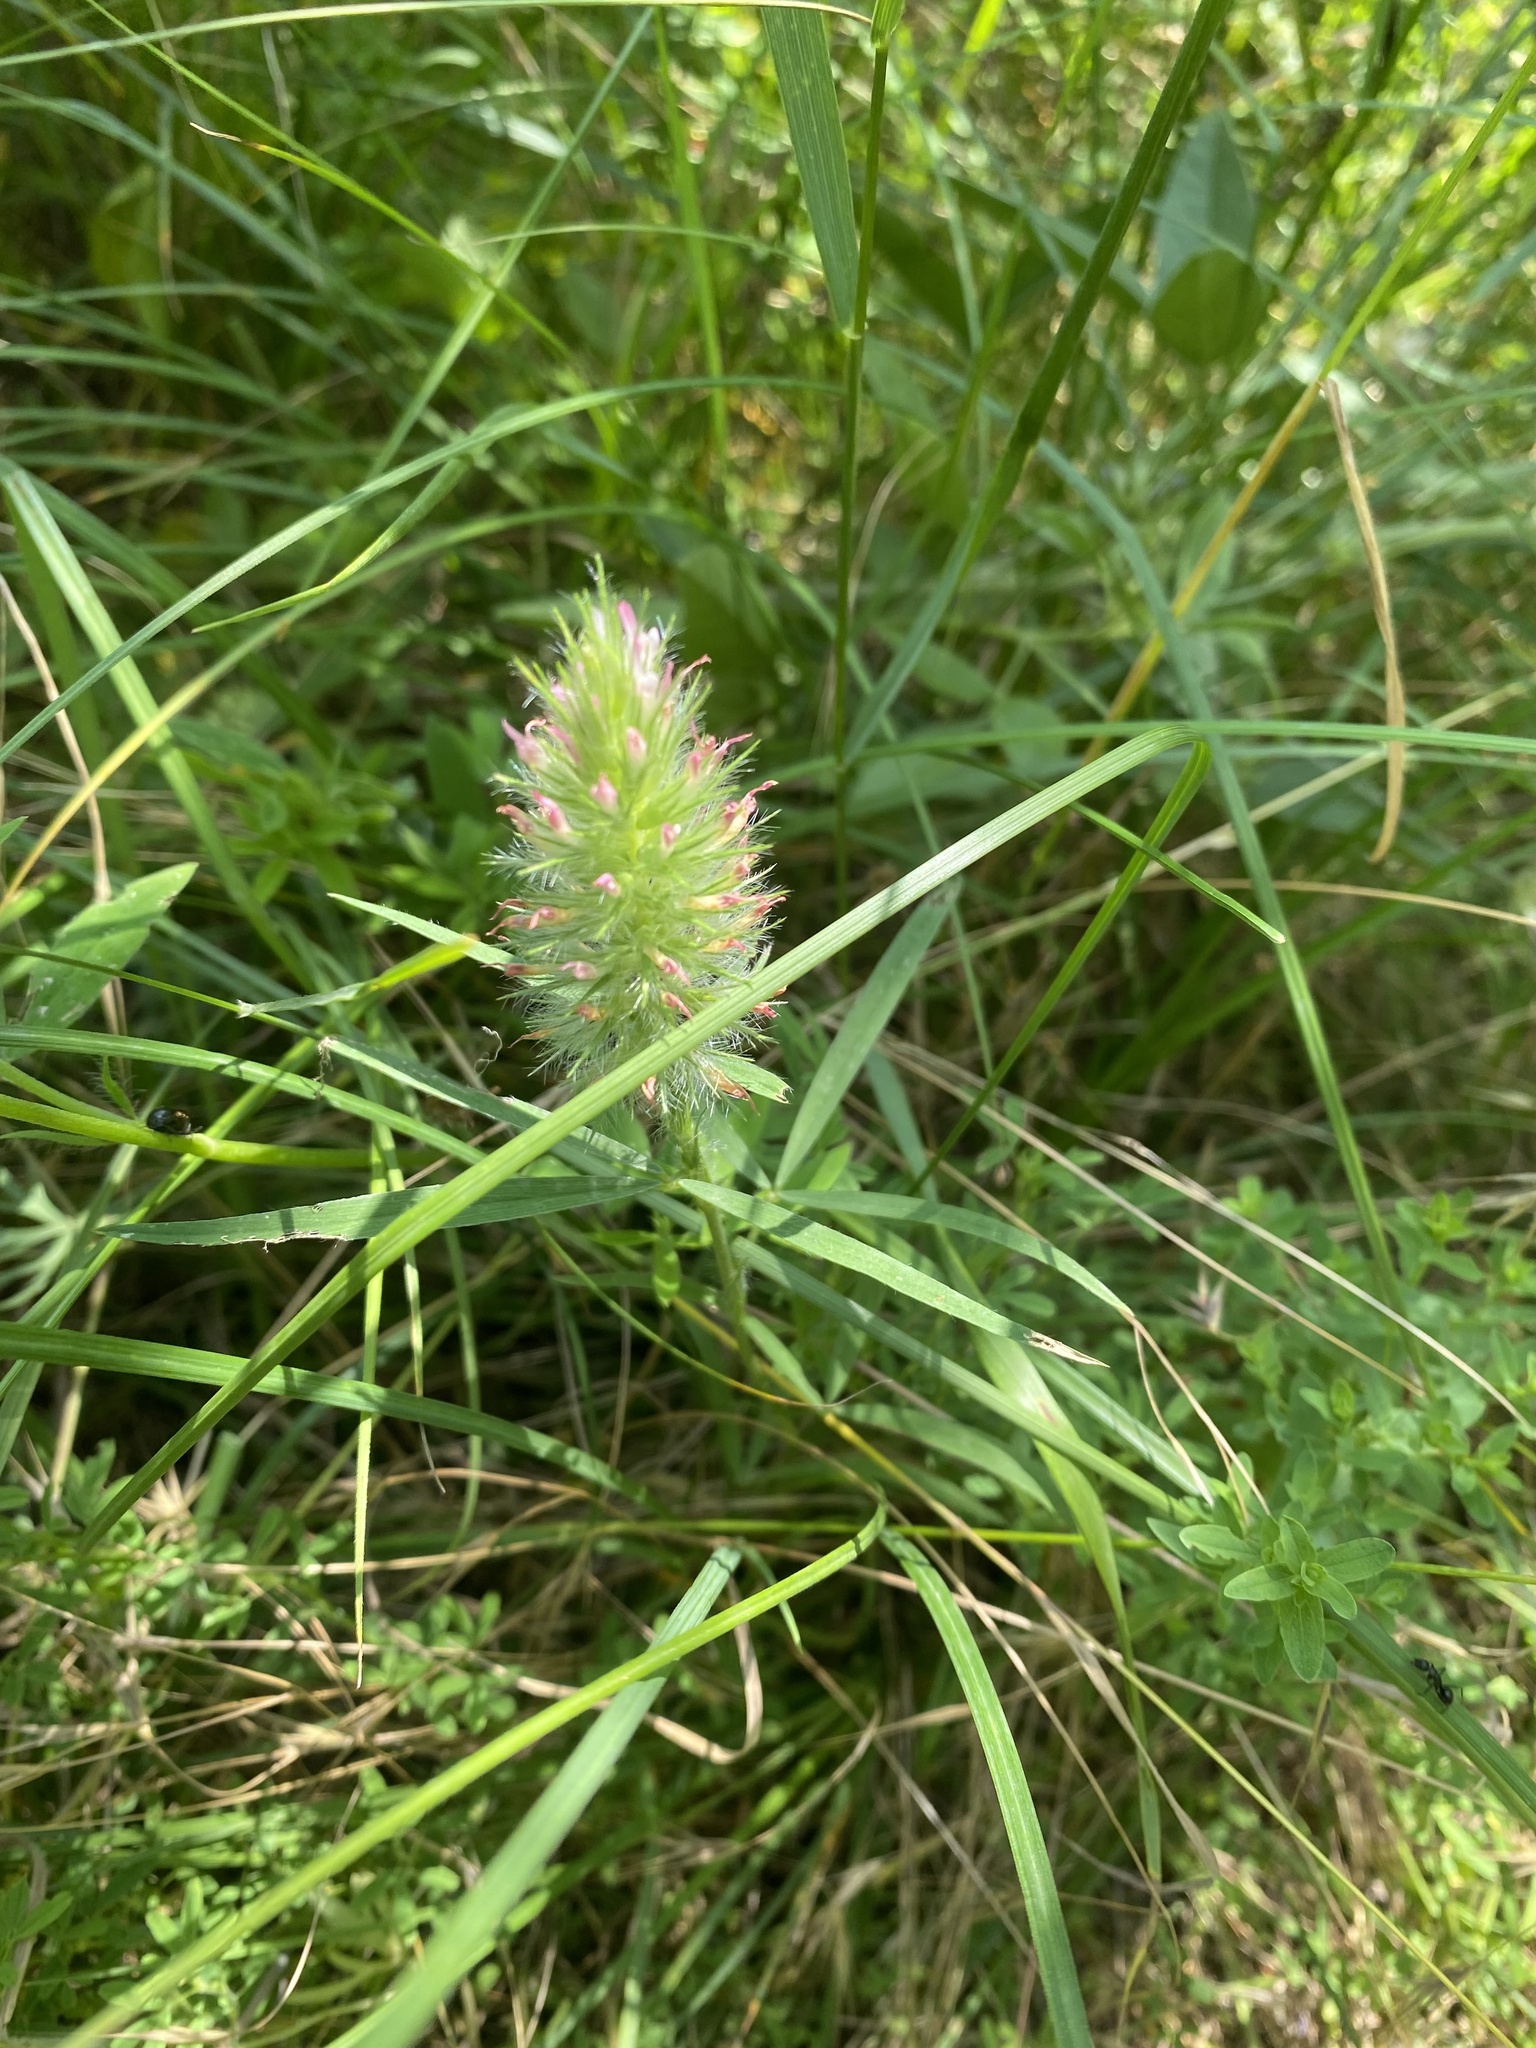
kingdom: Plantae
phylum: Tracheophyta
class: Magnoliopsida
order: Fabales
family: Fabaceae
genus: Trifolium
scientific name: Trifolium angustifolium
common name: Narrow clover
